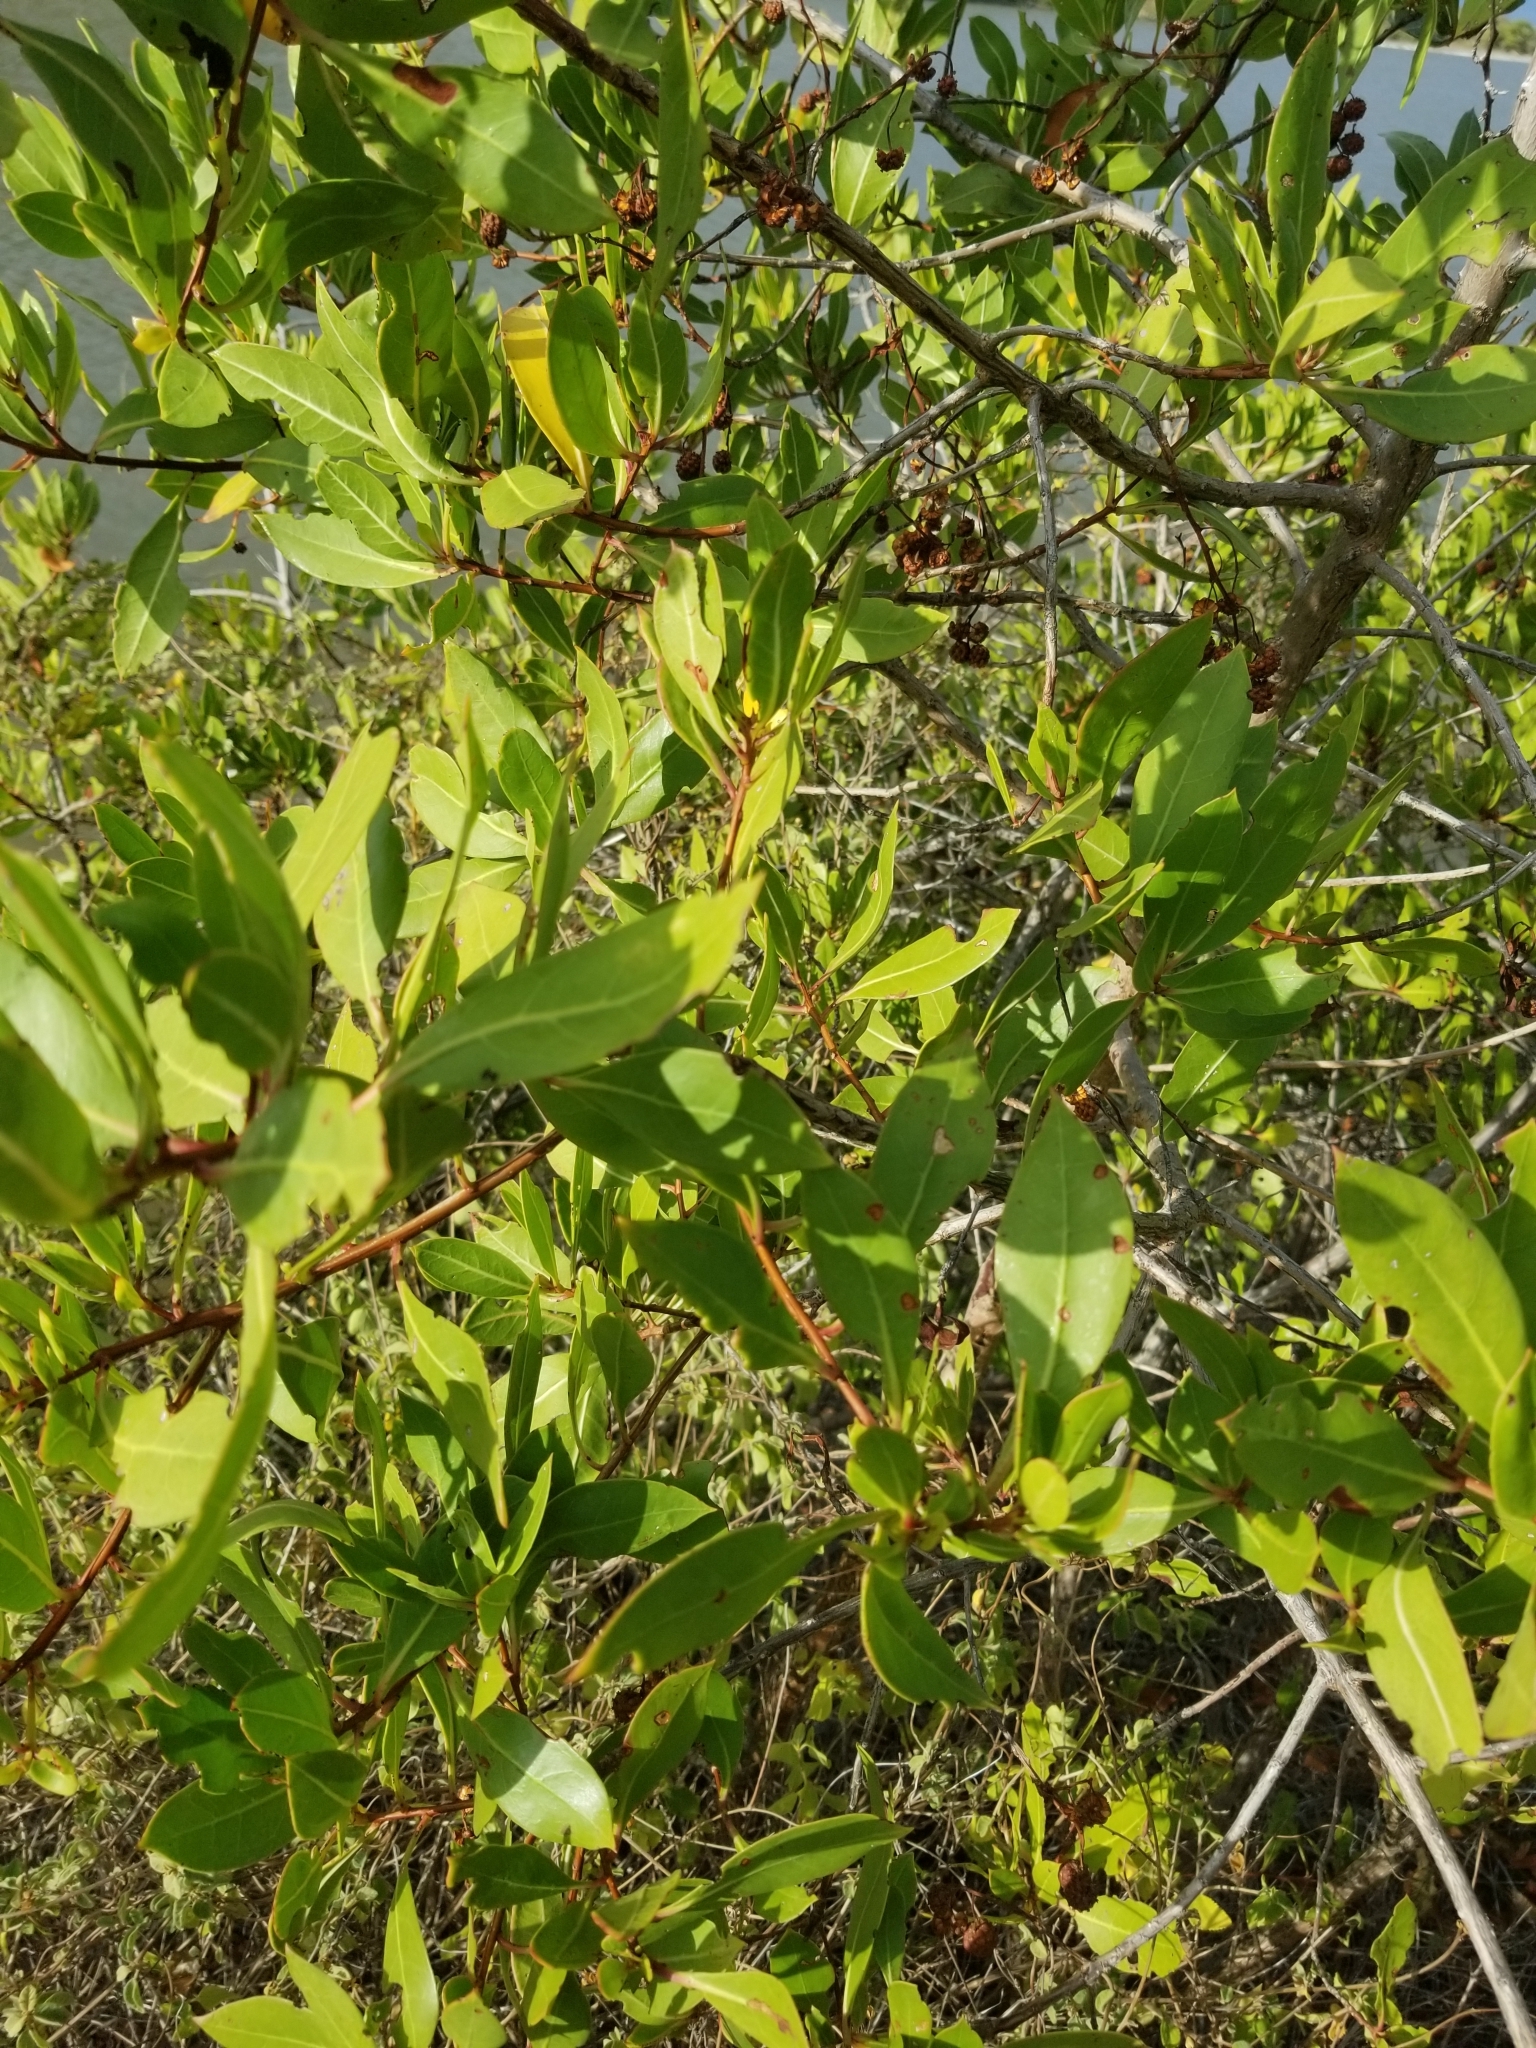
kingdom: Plantae
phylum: Tracheophyta
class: Magnoliopsida
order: Myrtales
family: Combretaceae
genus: Conocarpus
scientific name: Conocarpus erectus
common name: Button mangrove
